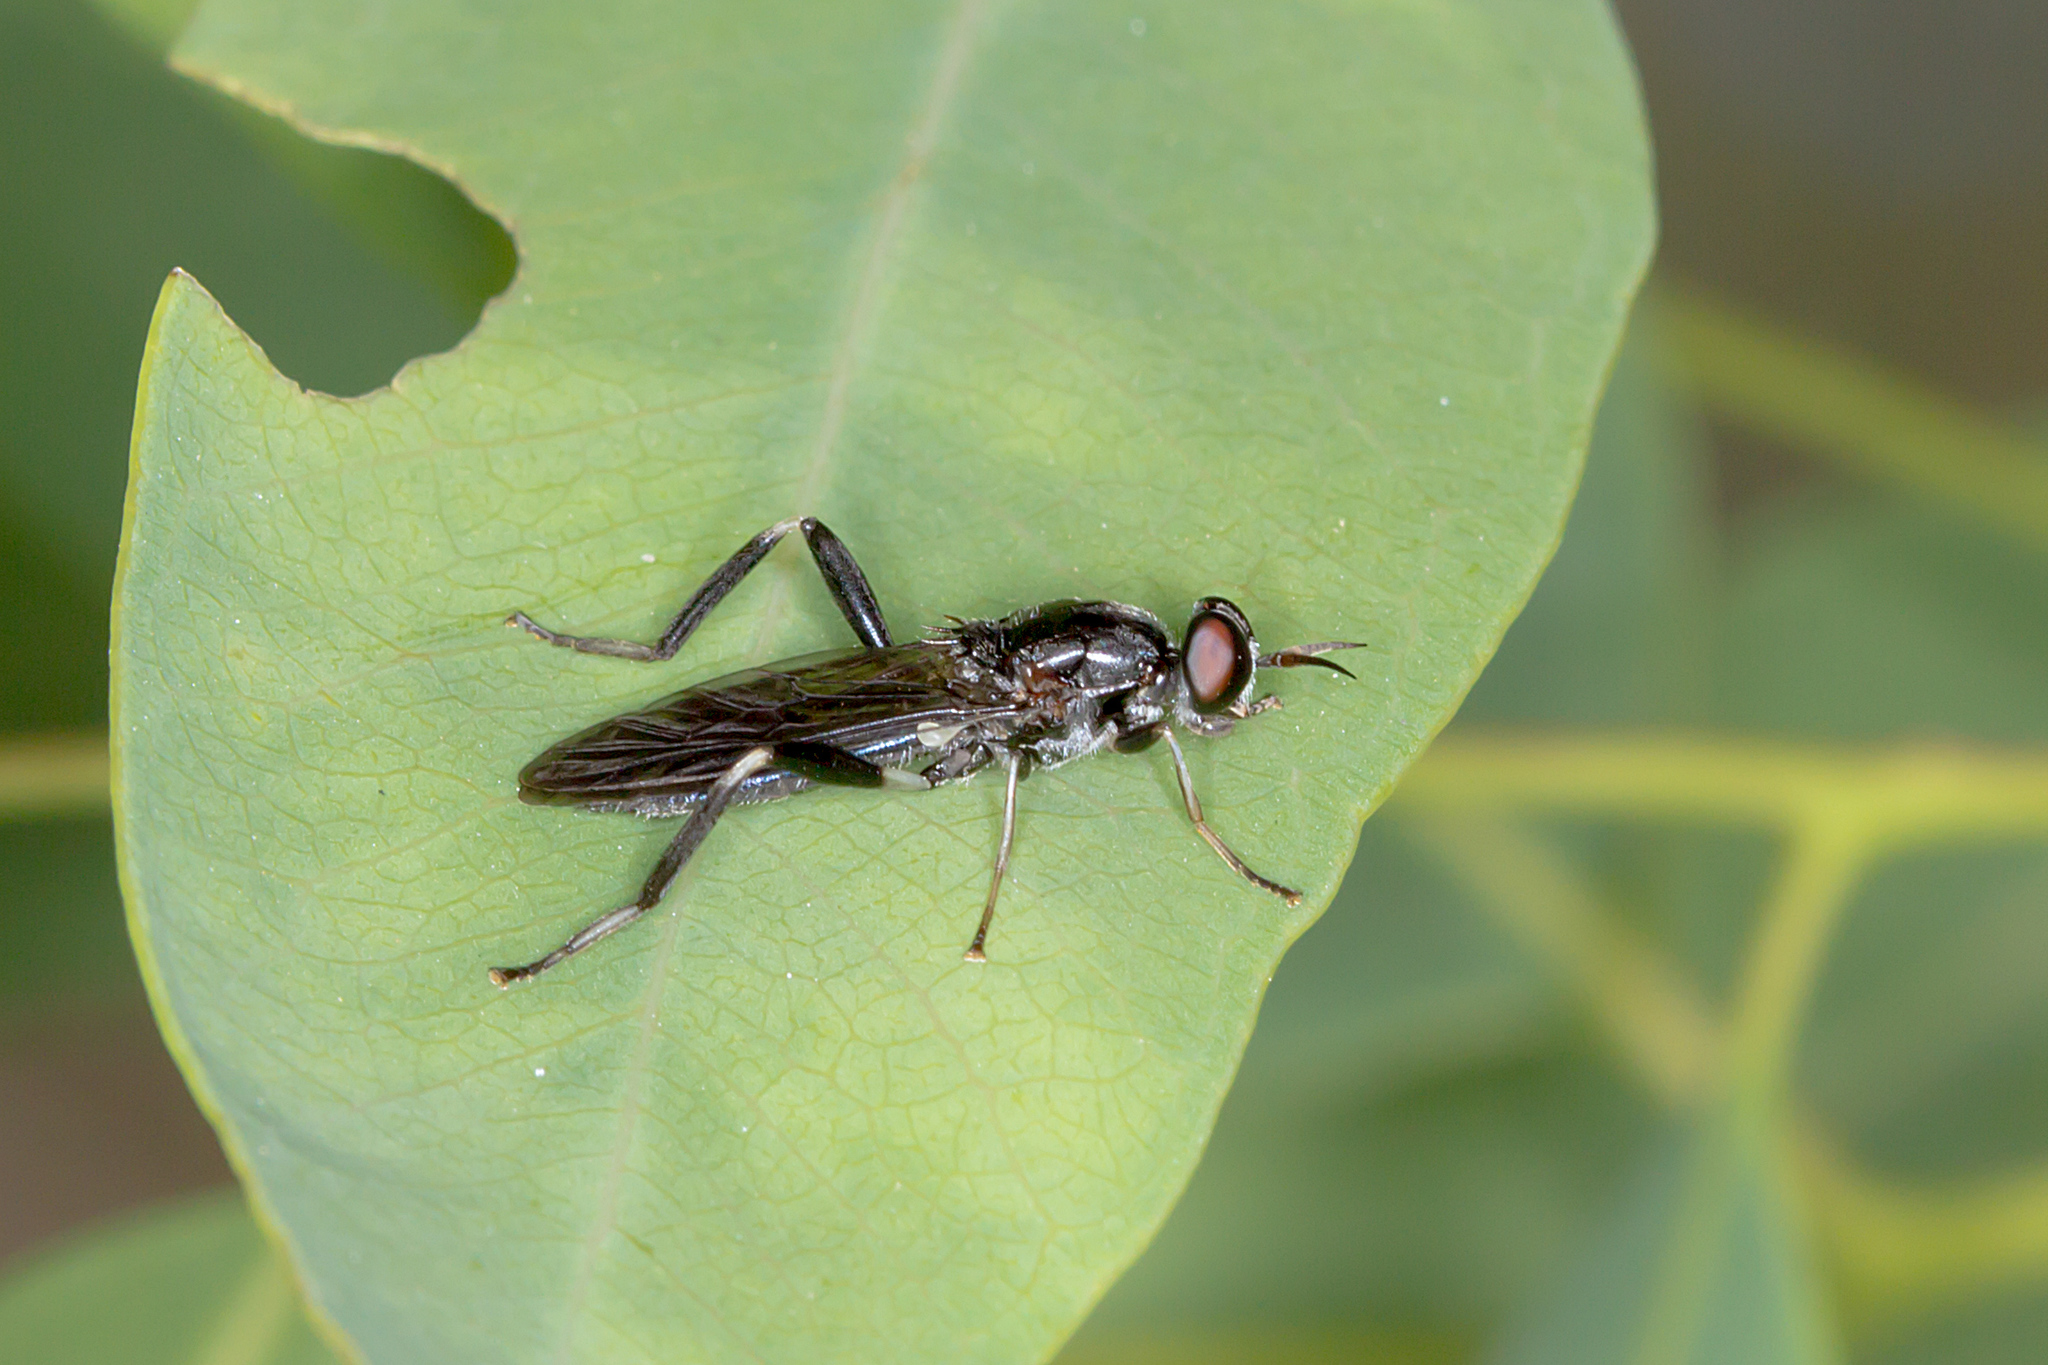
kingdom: Animalia
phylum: Arthropoda
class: Insecta
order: Diptera
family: Stratiomyidae
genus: Exaireta
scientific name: Exaireta spinigera
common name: Blue soldier fly
